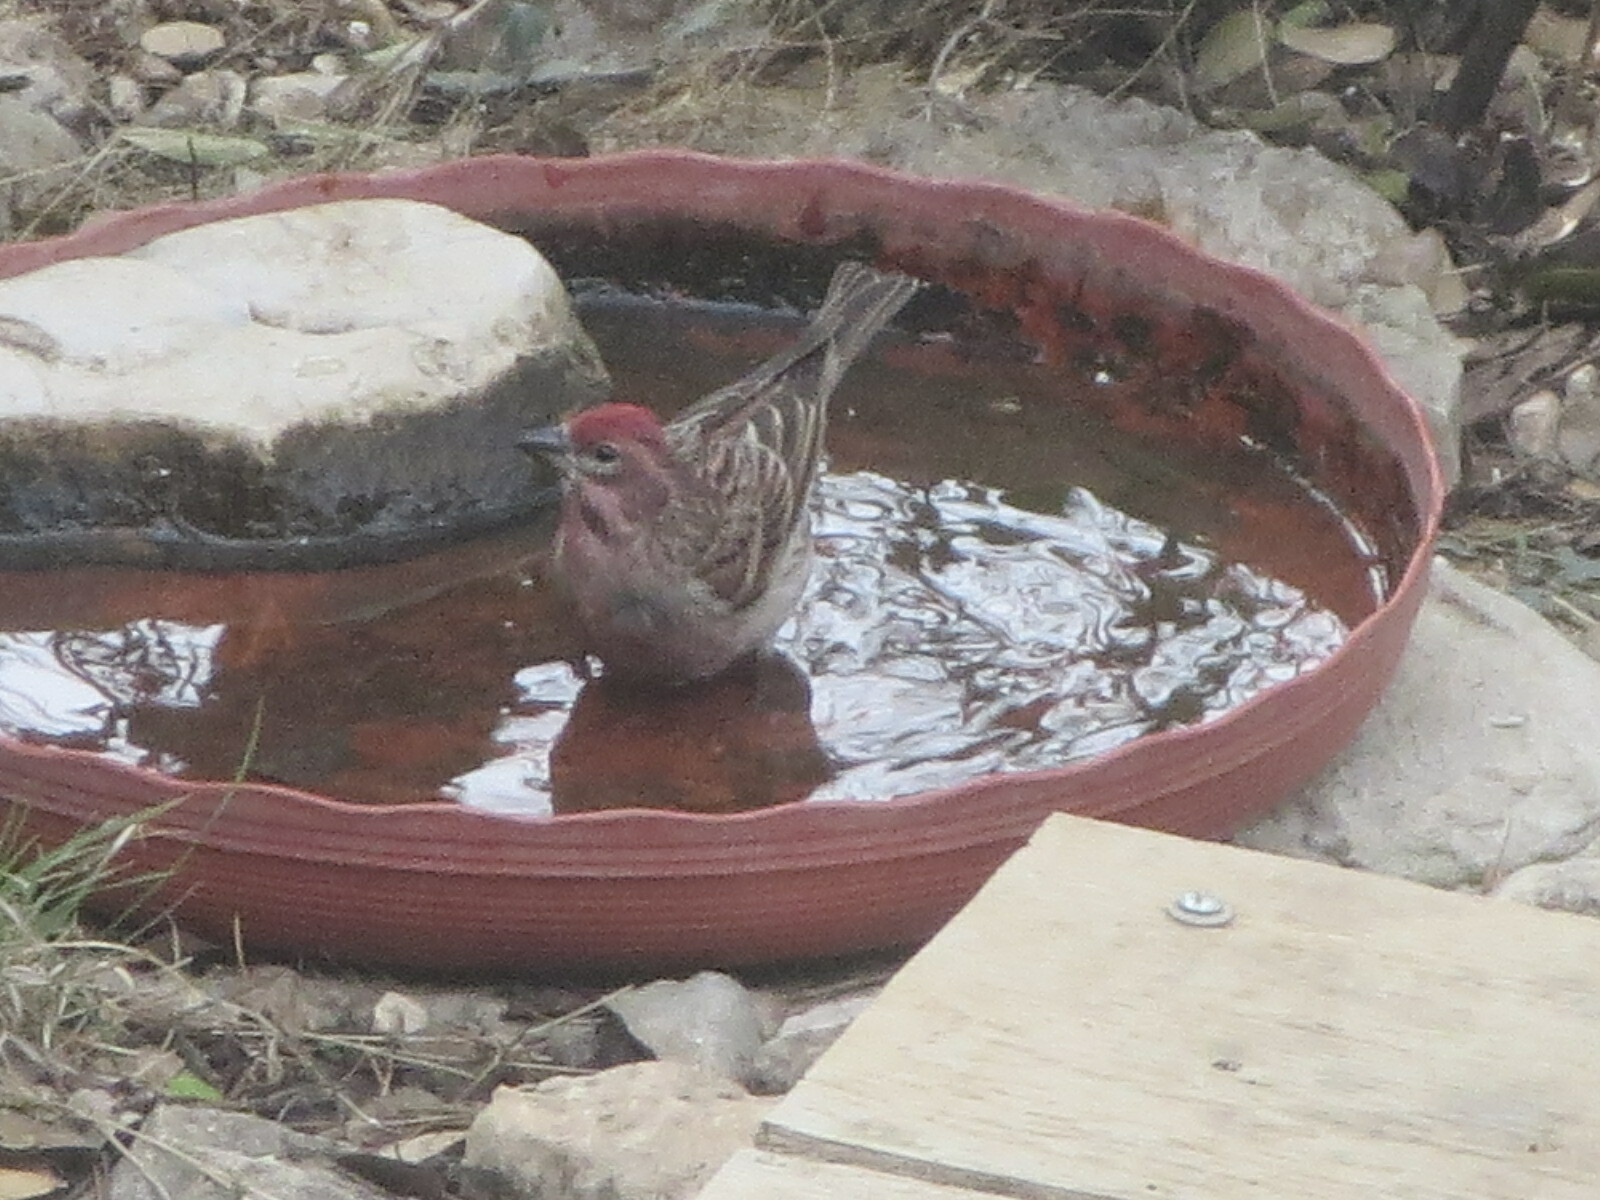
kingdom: Animalia
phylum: Chordata
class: Aves
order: Passeriformes
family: Fringillidae
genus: Haemorhous
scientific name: Haemorhous cassinii
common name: Cassin's finch
